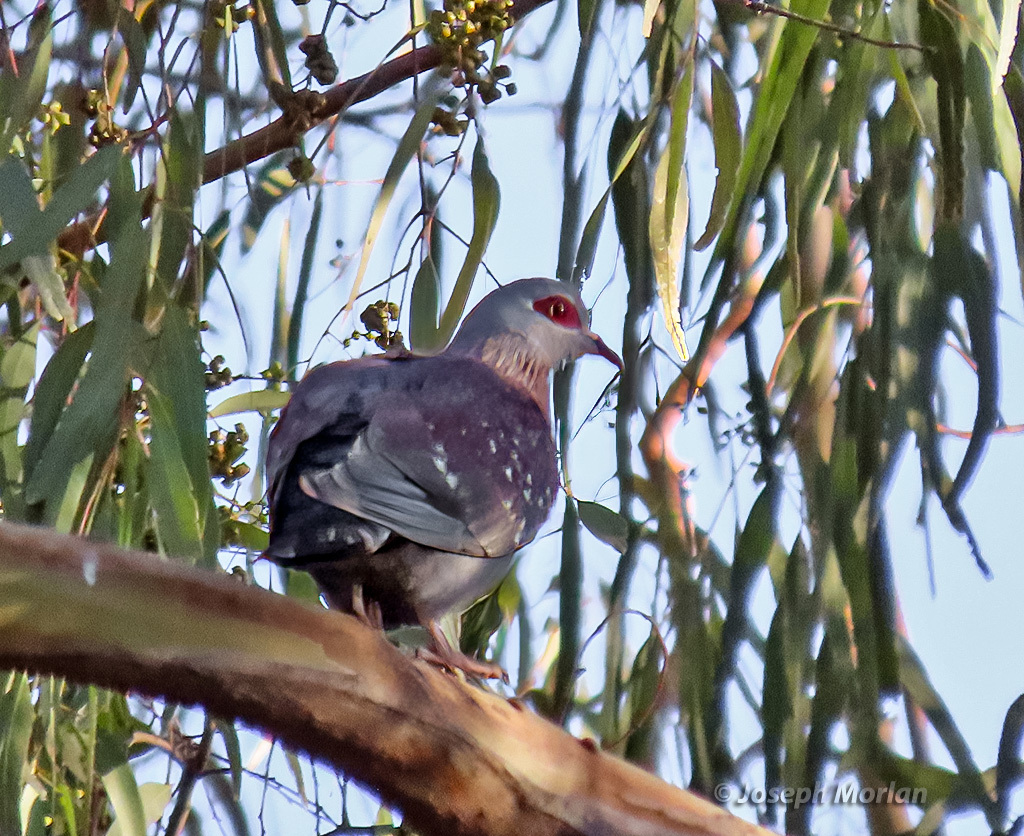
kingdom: Animalia
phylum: Chordata
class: Aves
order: Columbiformes
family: Columbidae
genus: Columba
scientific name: Columba guinea
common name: Speckled pigeon
